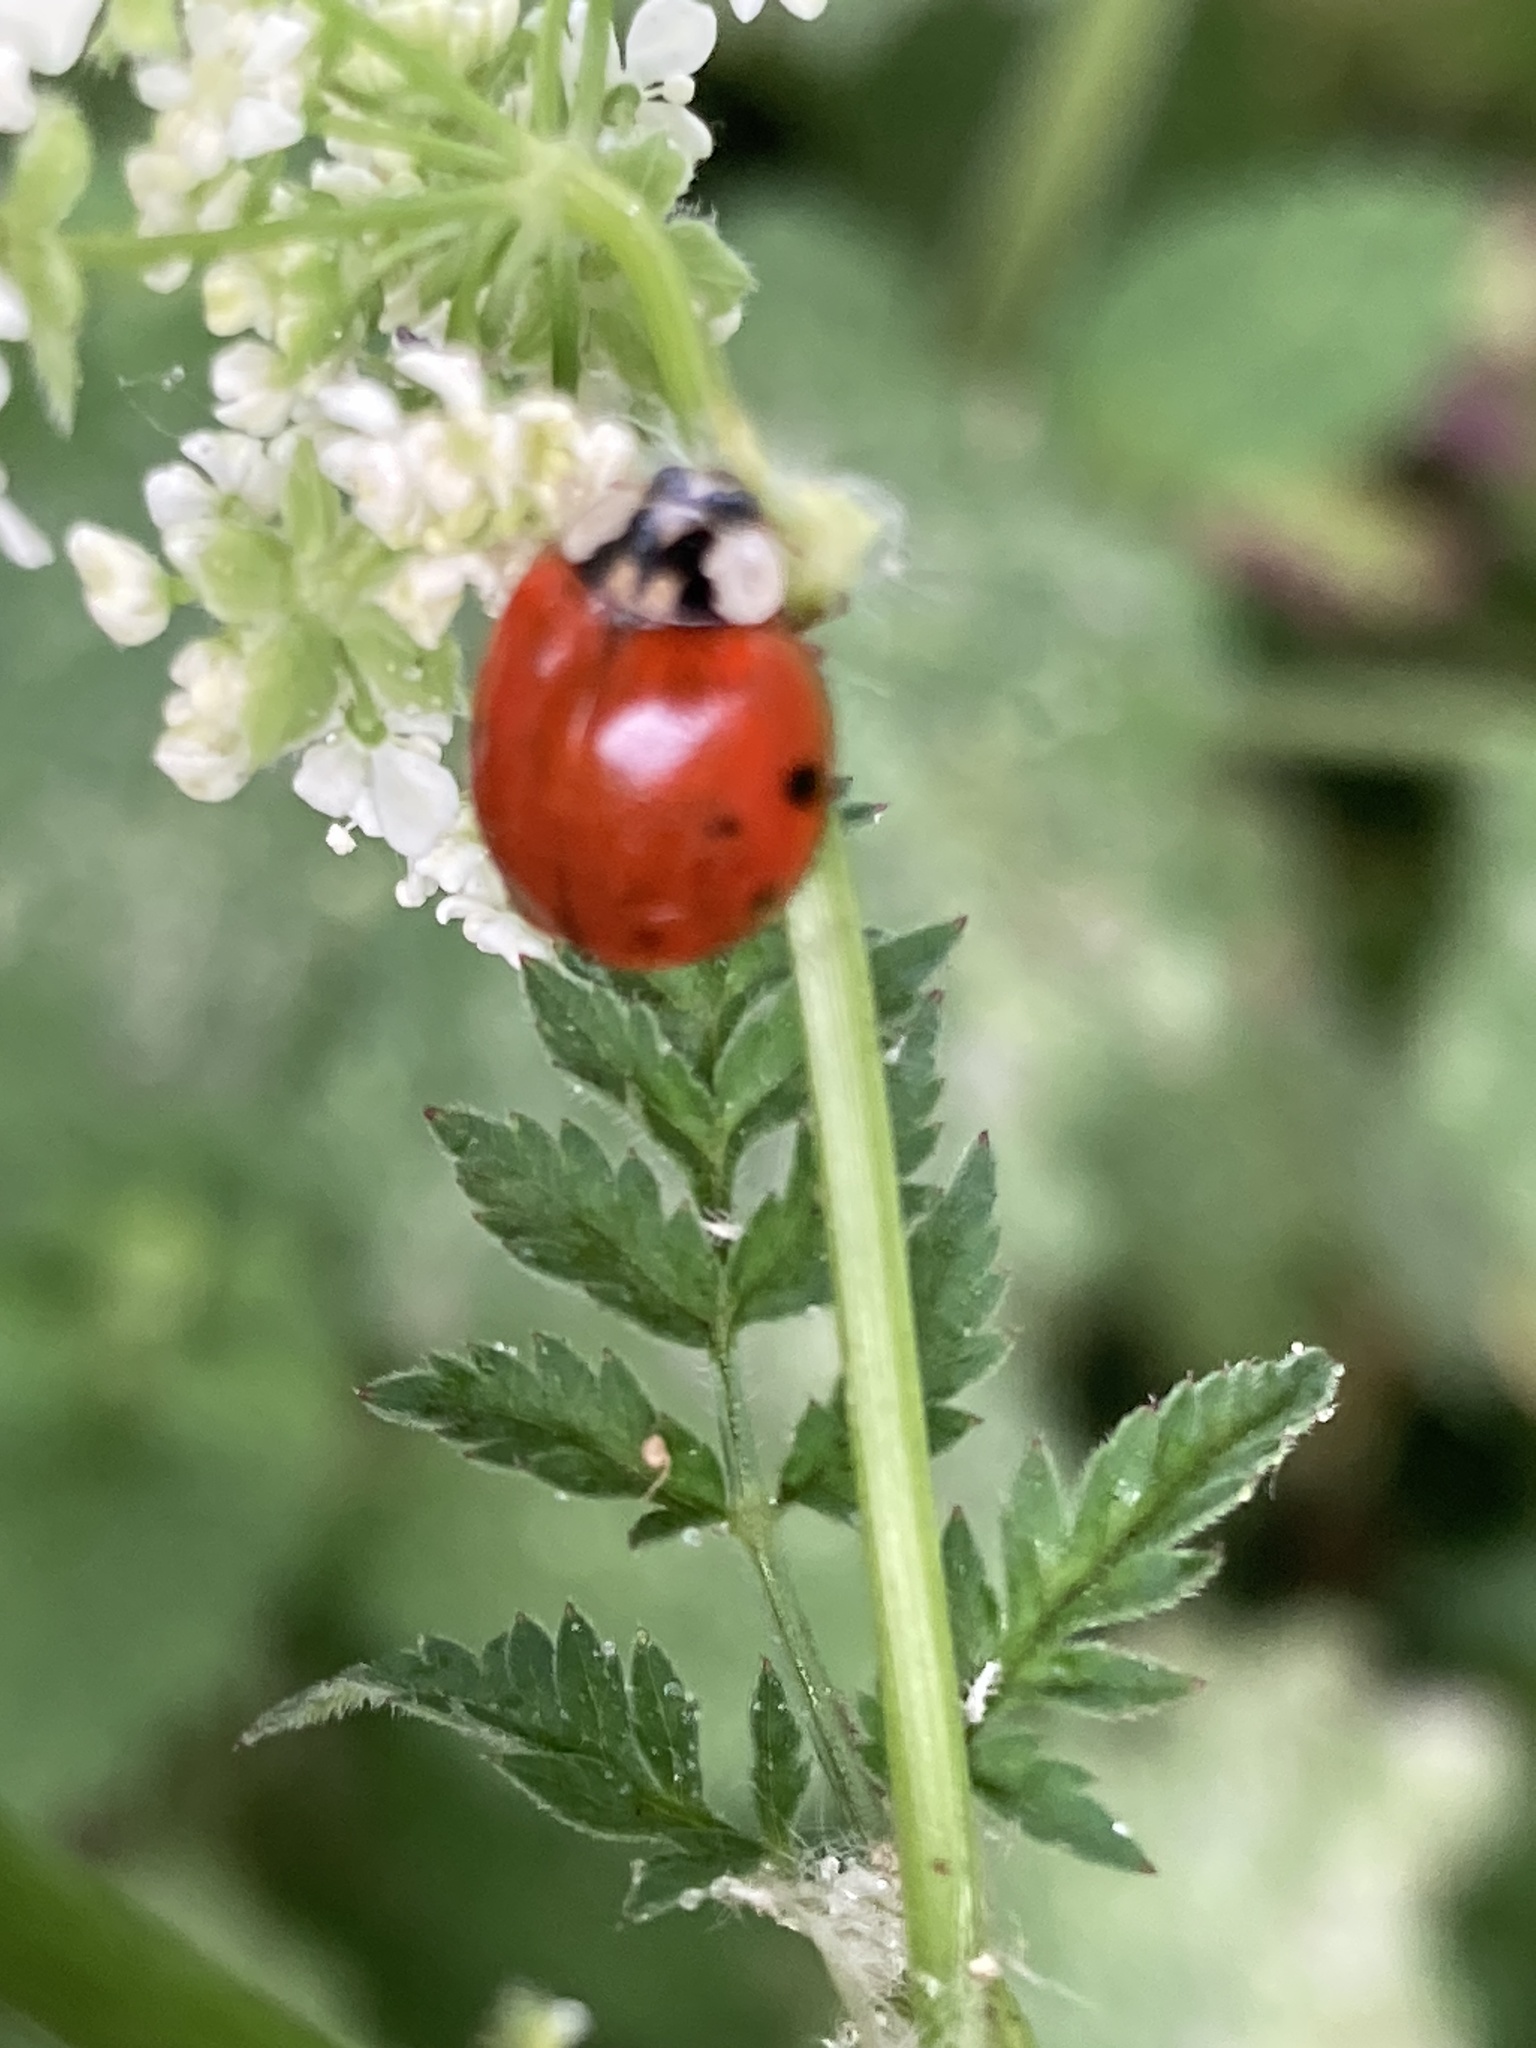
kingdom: Animalia
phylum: Arthropoda
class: Insecta
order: Coleoptera
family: Coccinellidae
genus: Harmonia
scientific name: Harmonia axyridis
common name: Harlequin ladybird
